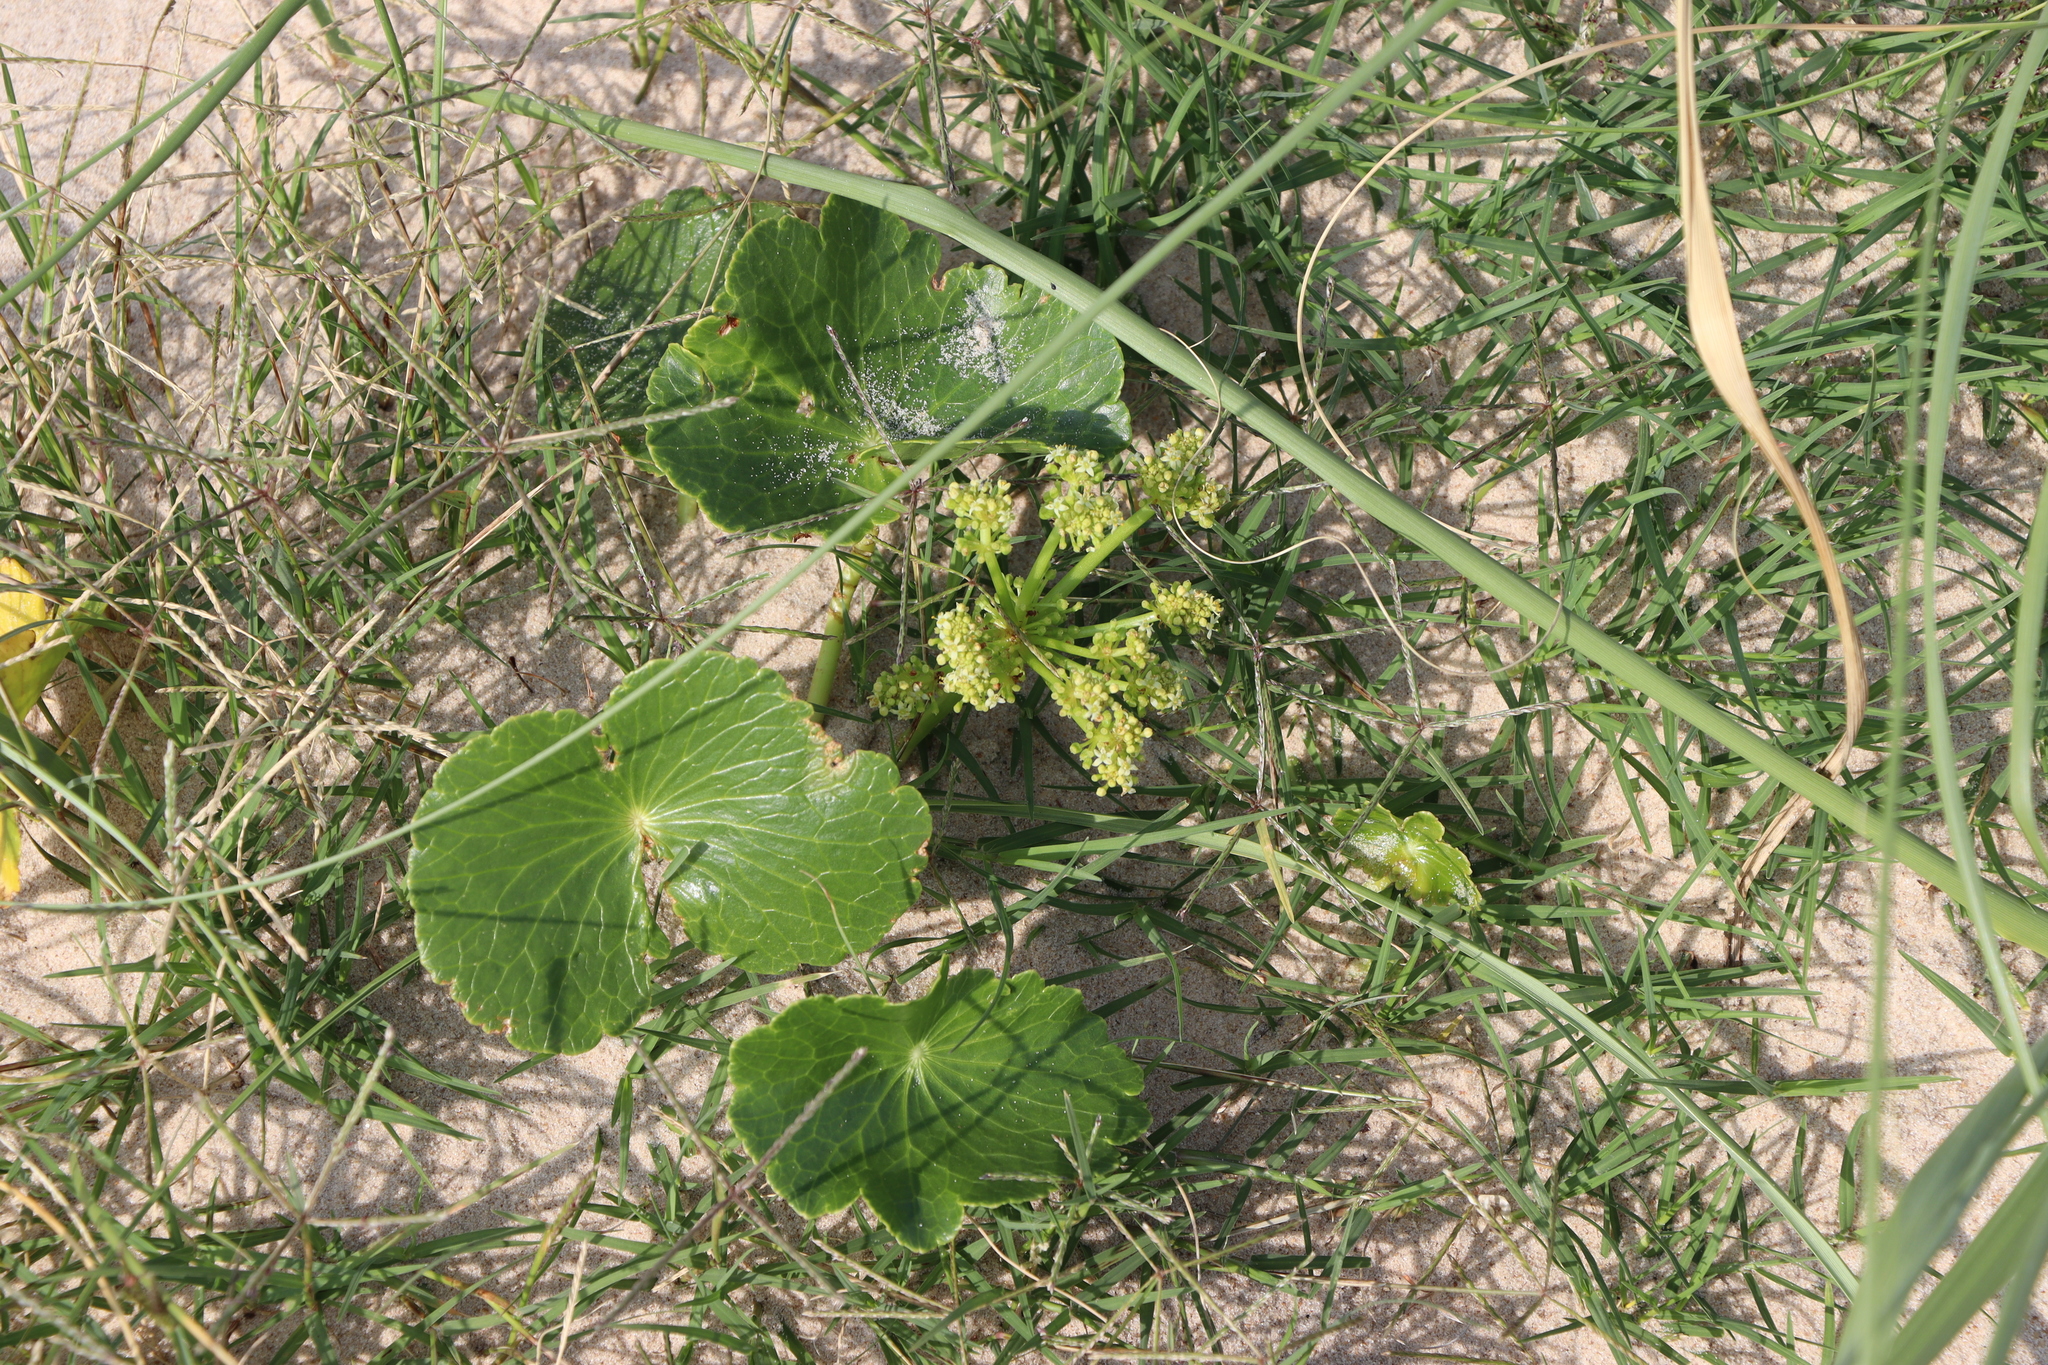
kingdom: Plantae
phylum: Tracheophyta
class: Magnoliopsida
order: Apiales
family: Araliaceae
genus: Hydrocotyle
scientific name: Hydrocotyle bonariensis
